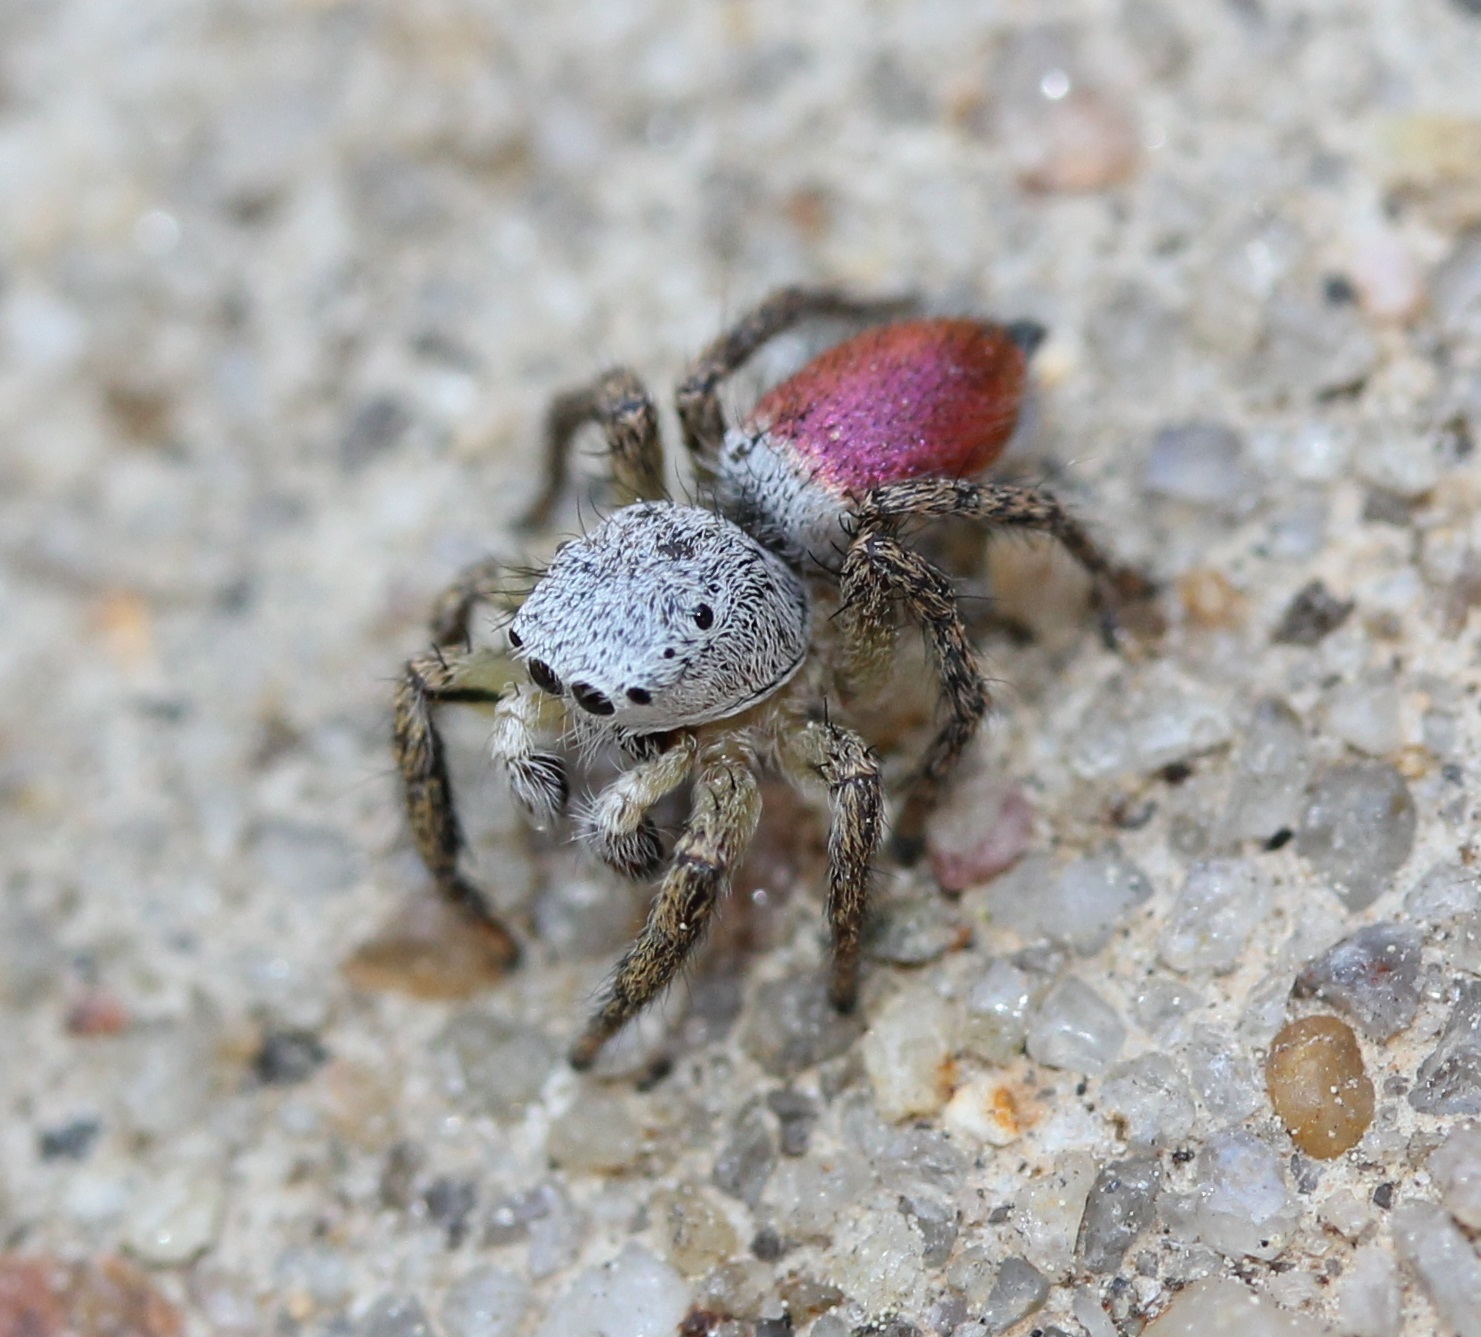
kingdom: Animalia
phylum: Arthropoda
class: Arachnida
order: Araneae
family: Salticidae
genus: Habronattus
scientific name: Habronattus decorus
